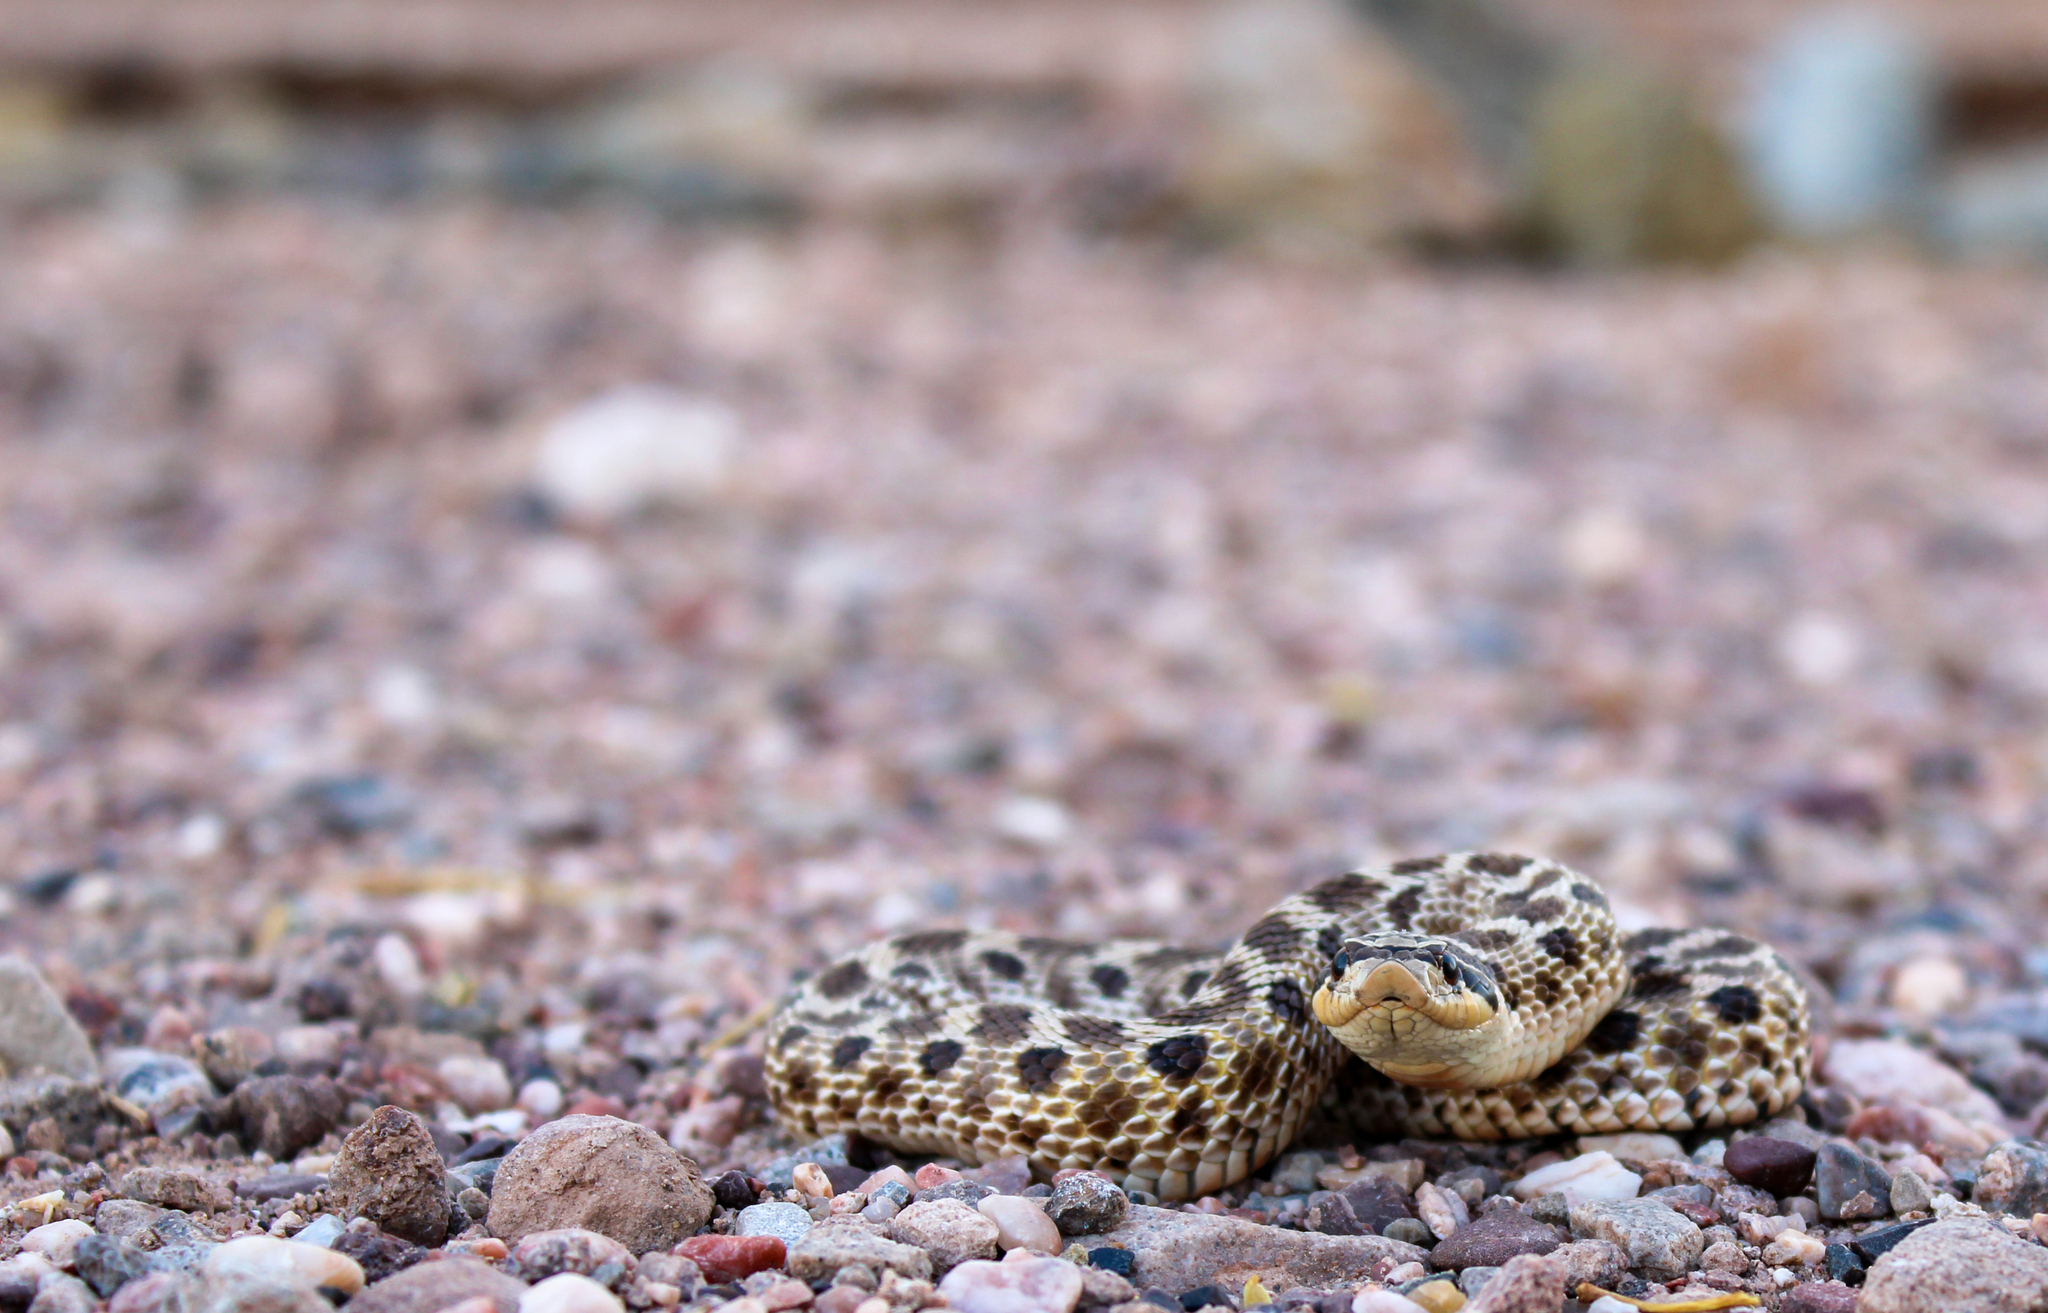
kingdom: Animalia
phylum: Chordata
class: Squamata
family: Colubridae
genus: Heterodon
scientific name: Heterodon kennerlyi
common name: Mexican hognose snake
